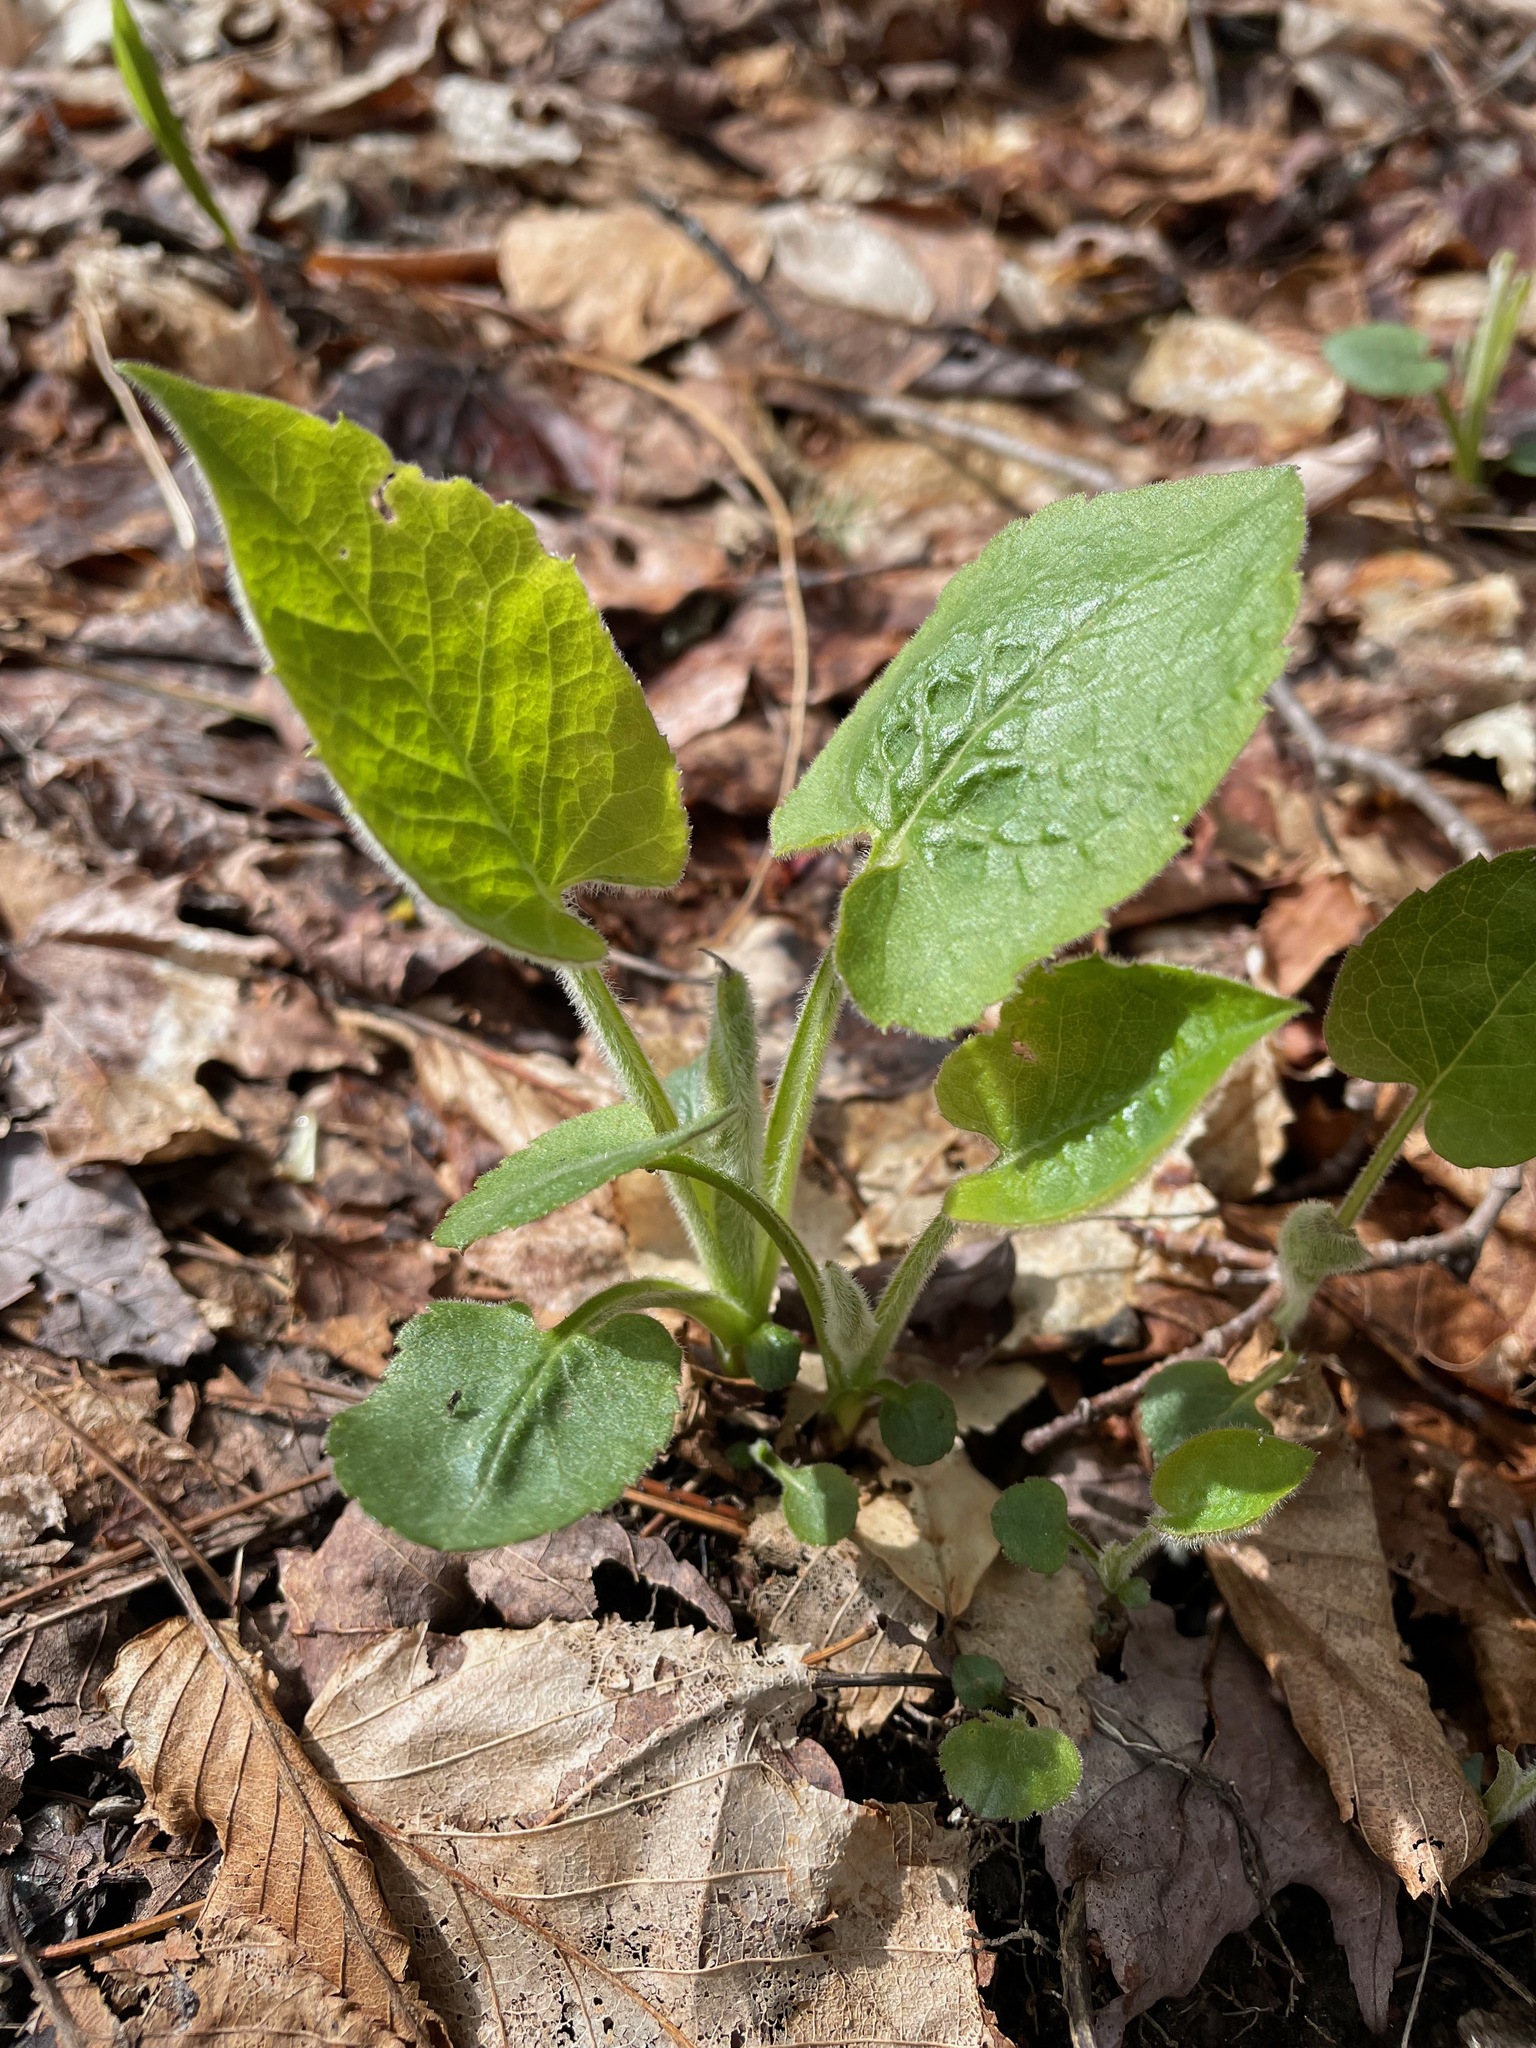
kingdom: Plantae
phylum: Tracheophyta
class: Magnoliopsida
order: Asterales
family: Asteraceae
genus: Eurybia
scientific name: Eurybia macrophylla
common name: Big-leaved aster
